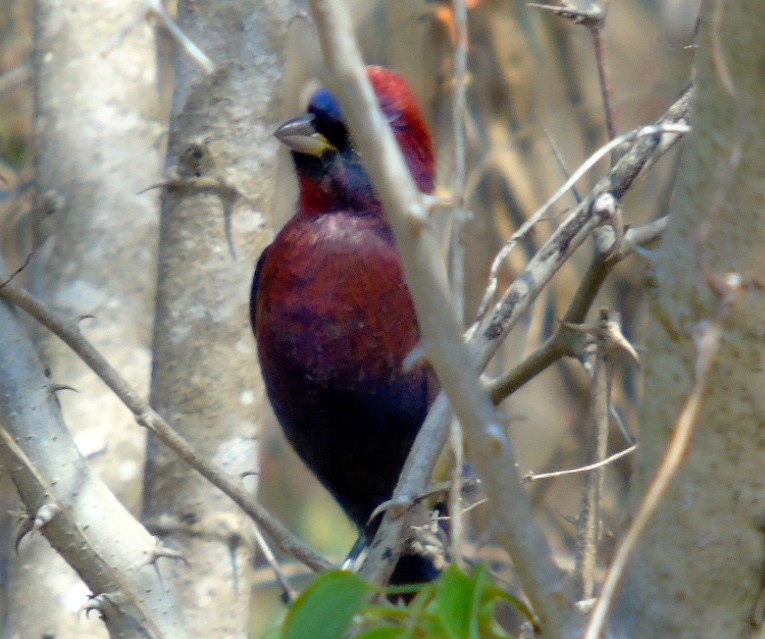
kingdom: Animalia
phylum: Chordata
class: Aves
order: Passeriformes
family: Cardinalidae
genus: Passerina
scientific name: Passerina versicolor
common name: Varied bunting
